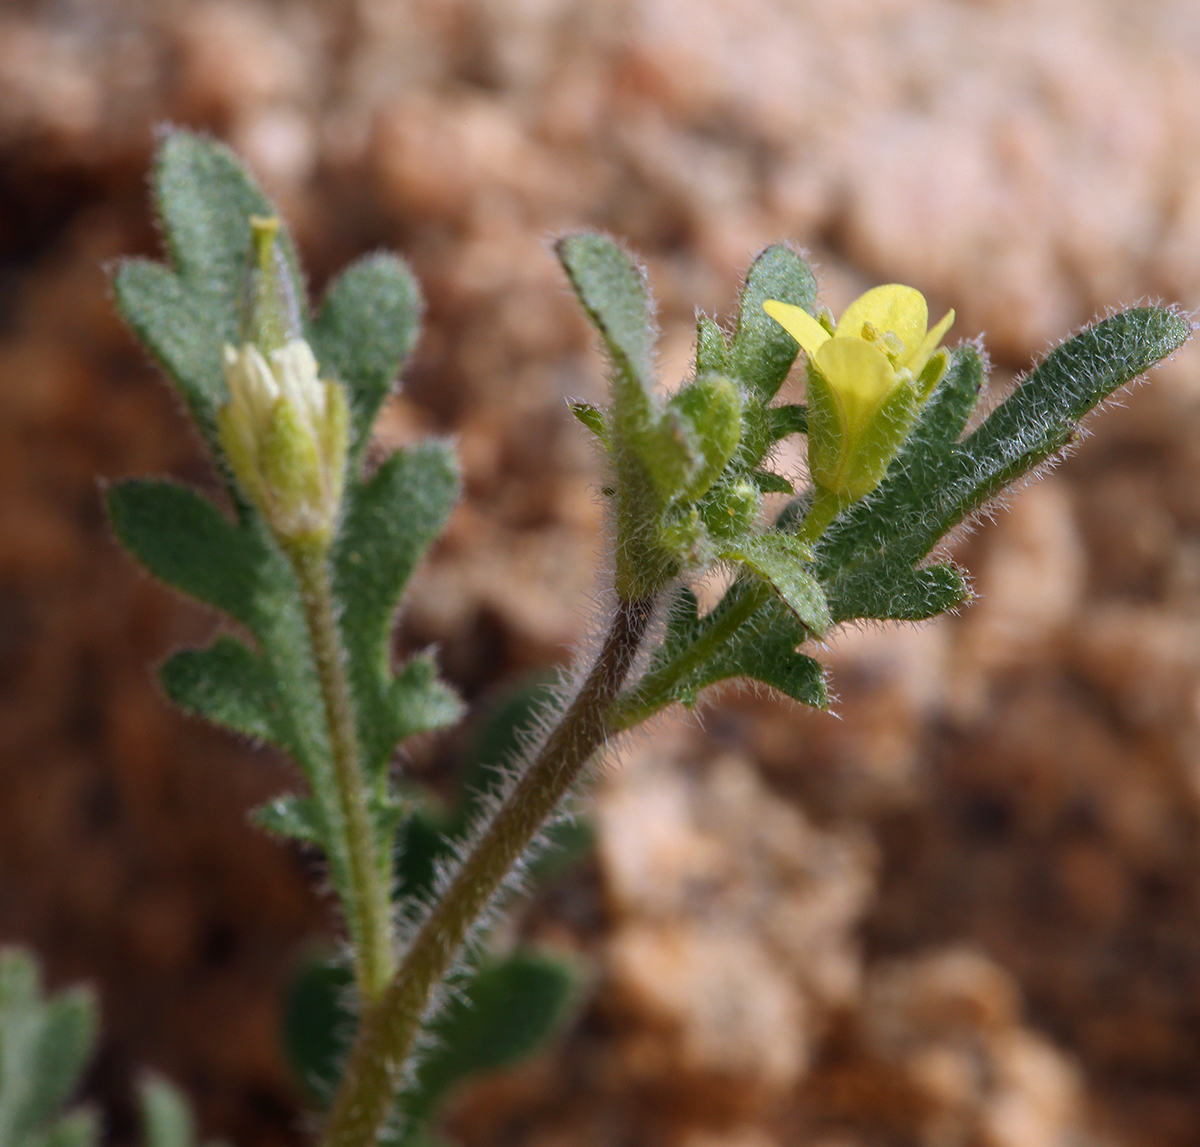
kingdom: Plantae
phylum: Tracheophyta
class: Magnoliopsida
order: Brassicales
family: Brassicaceae
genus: Tropidocarpum
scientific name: Tropidocarpum gracile
